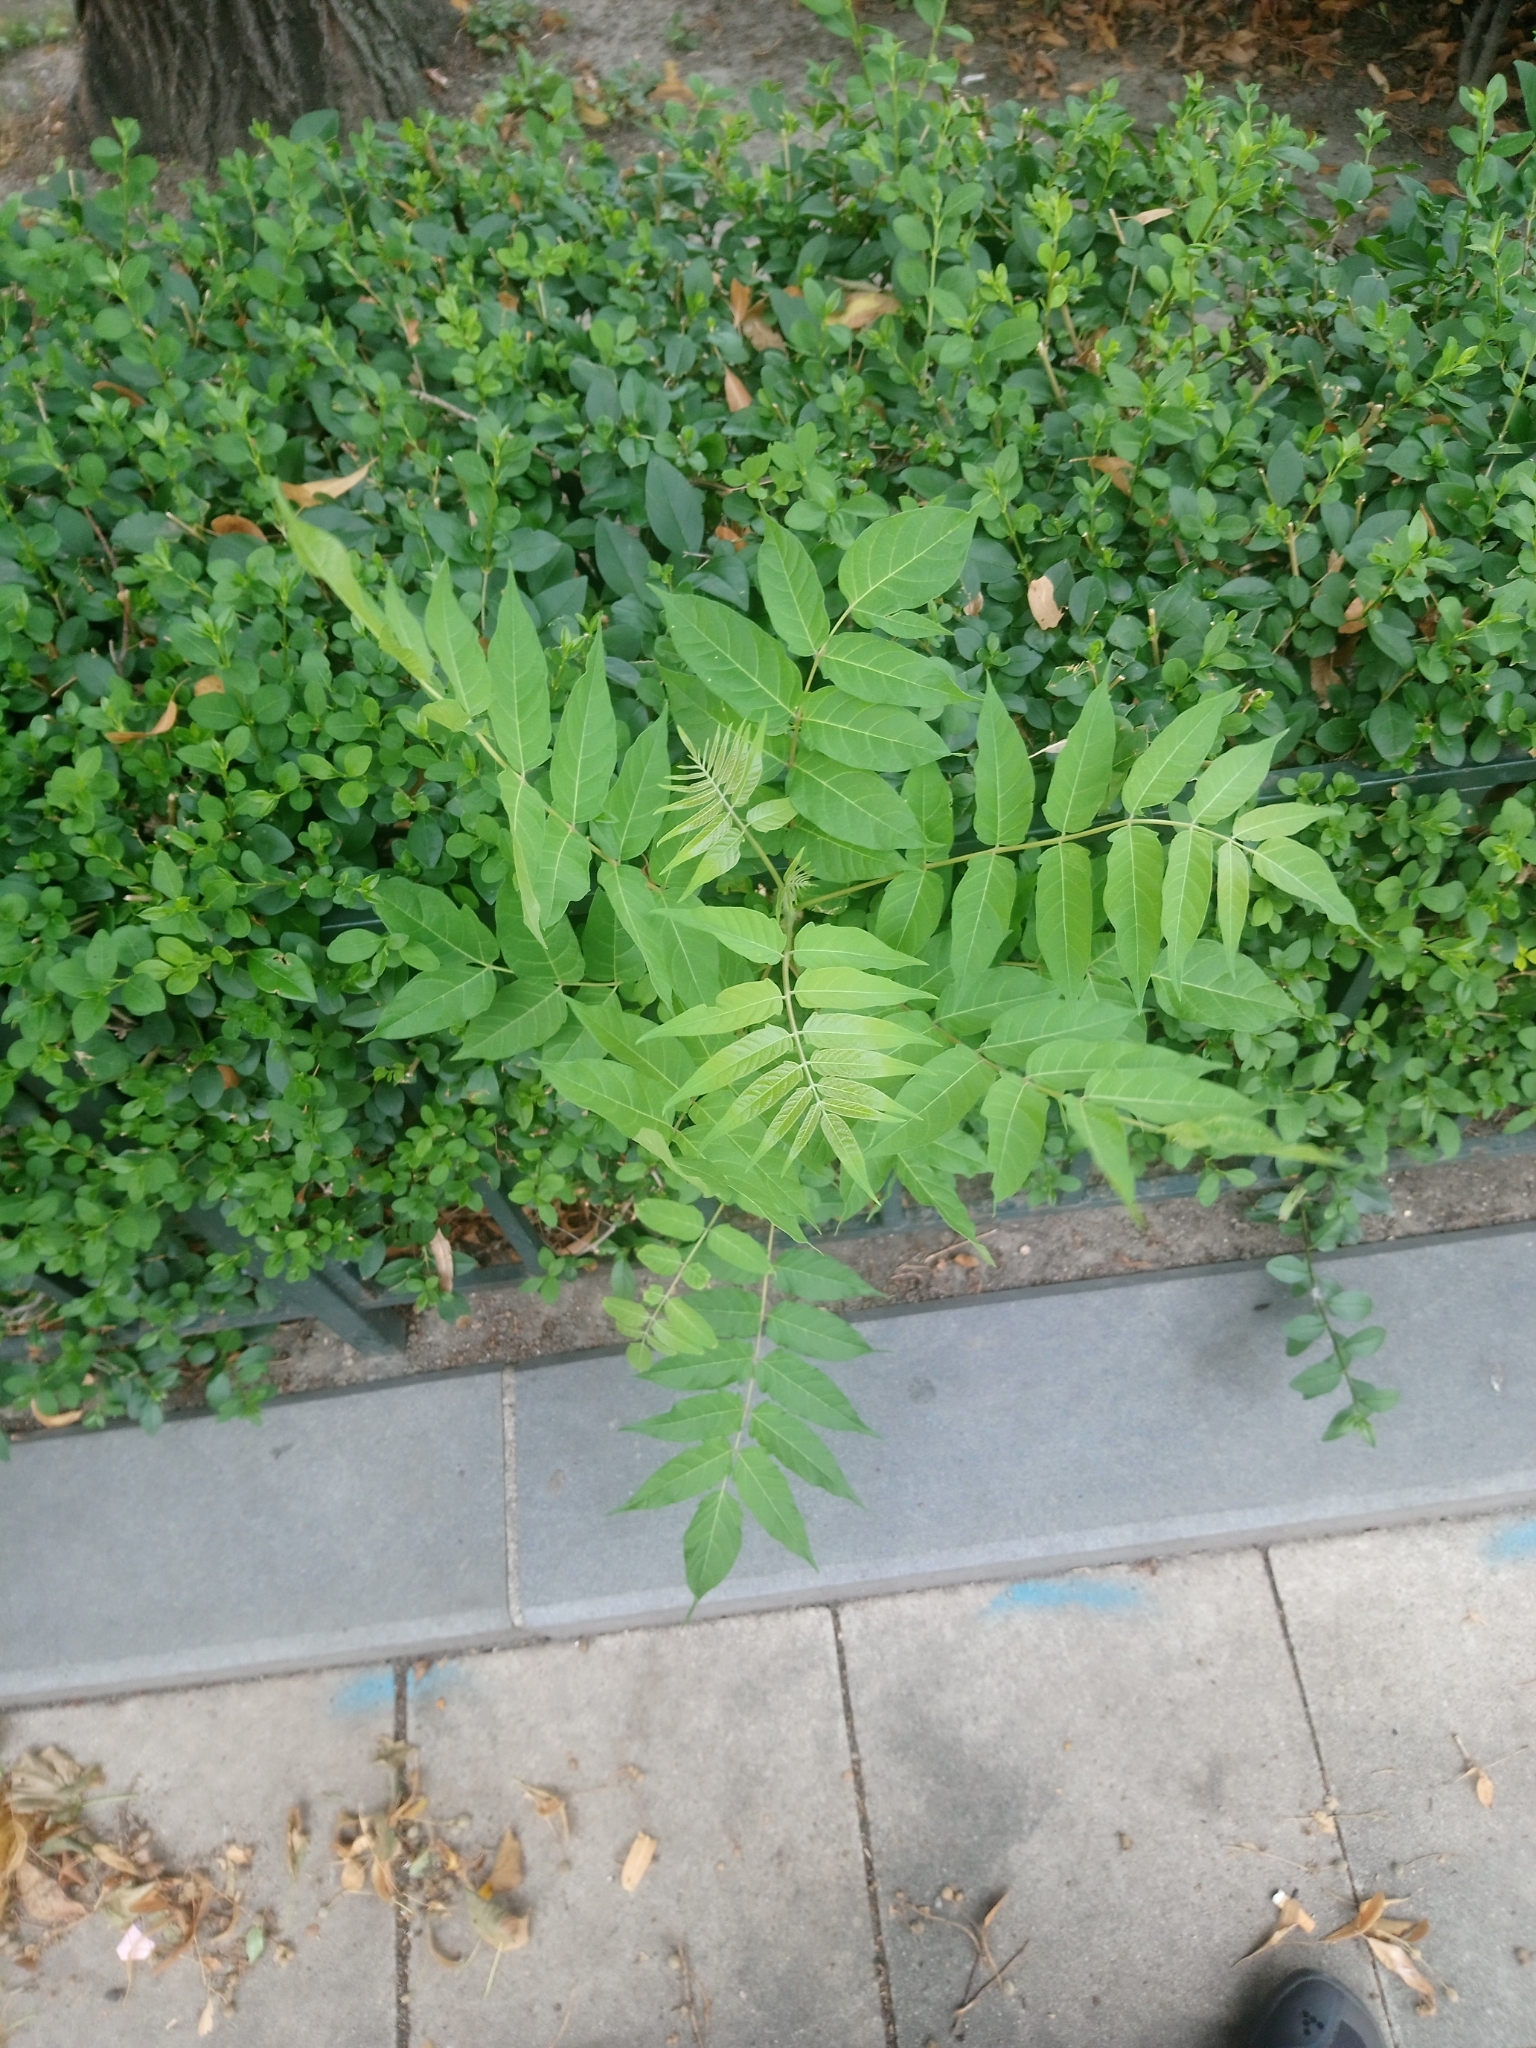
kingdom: Plantae
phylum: Tracheophyta
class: Magnoliopsida
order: Sapindales
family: Simaroubaceae
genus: Ailanthus
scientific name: Ailanthus altissima
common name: Tree-of-heaven
